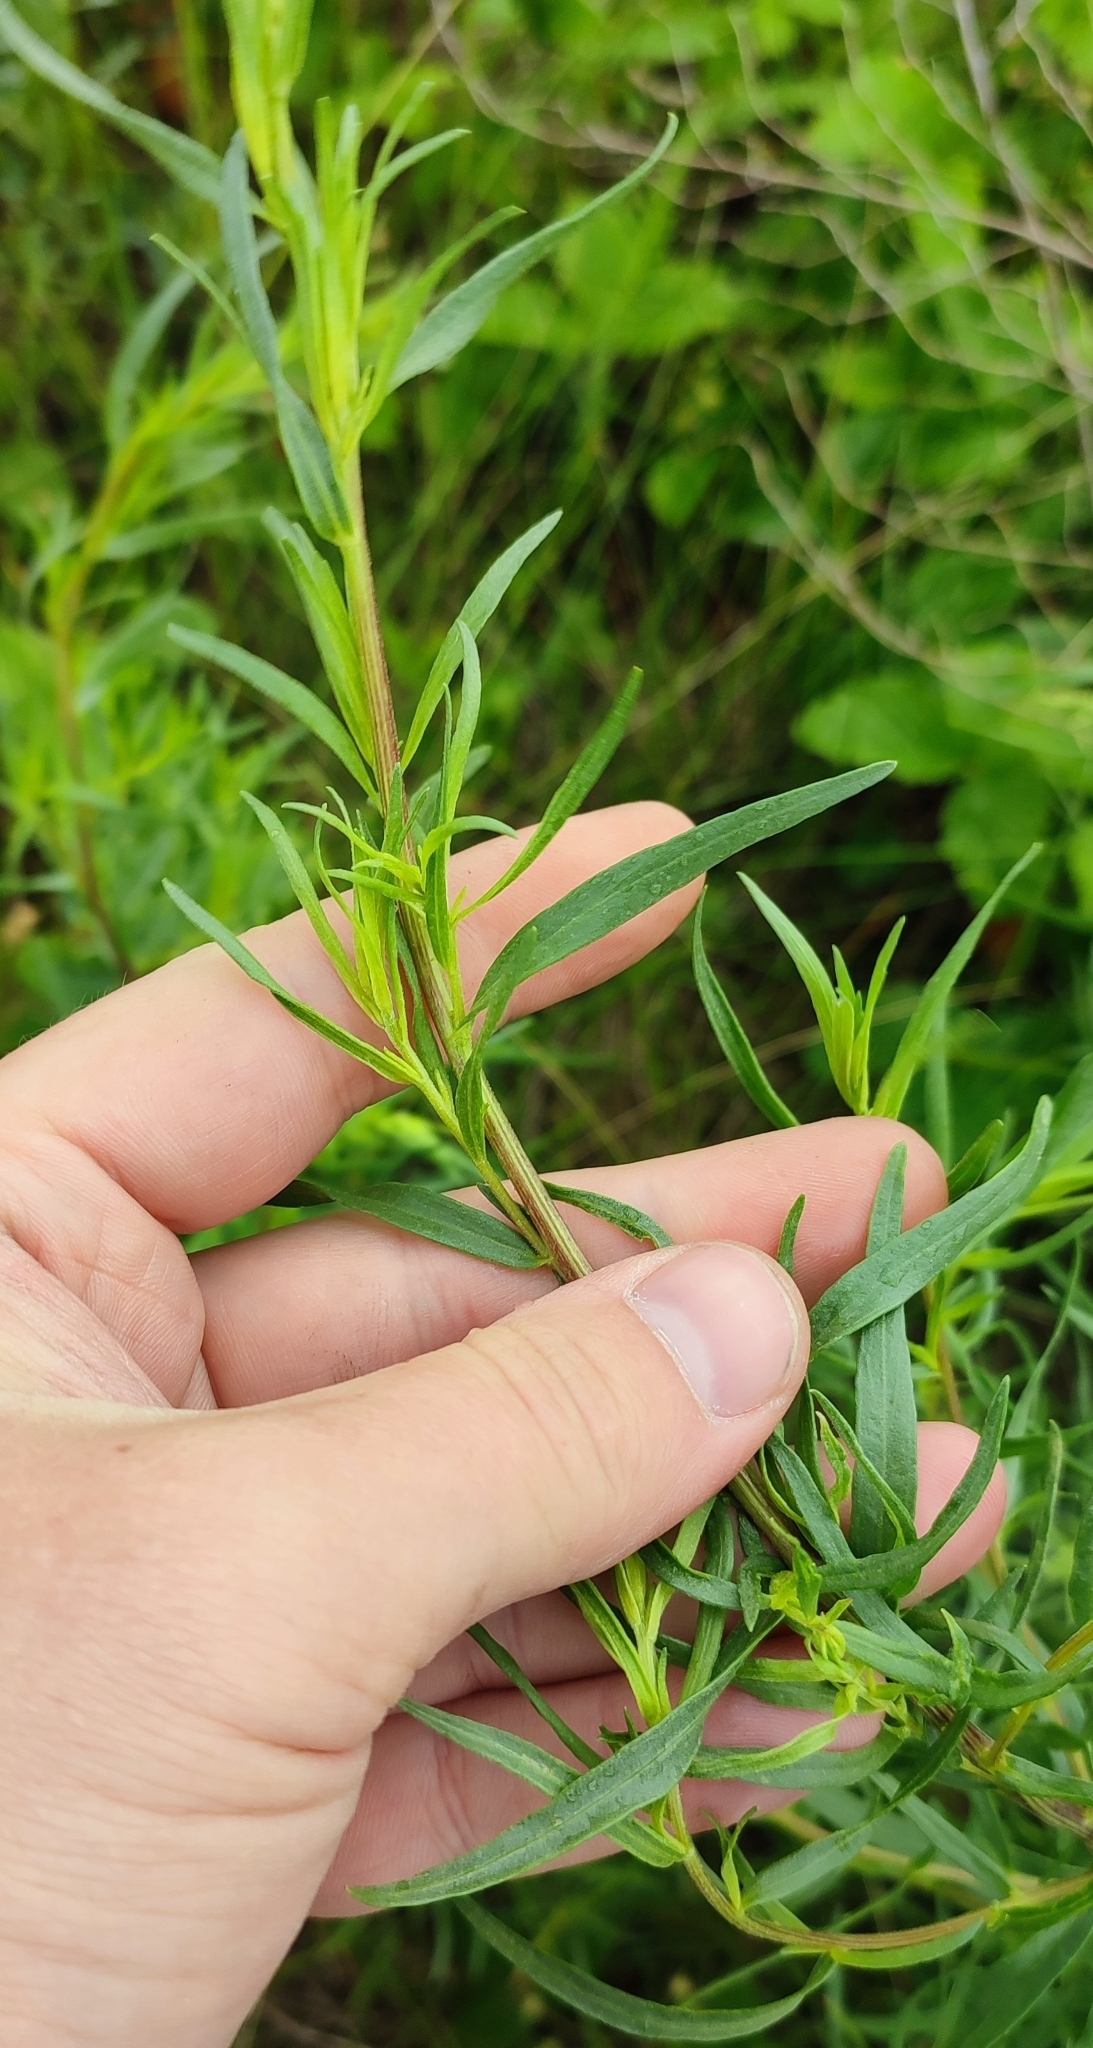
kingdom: Plantae
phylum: Tracheophyta
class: Magnoliopsida
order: Asterales
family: Asteraceae
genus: Artemisia
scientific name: Artemisia dracunculus
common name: Tarragon
